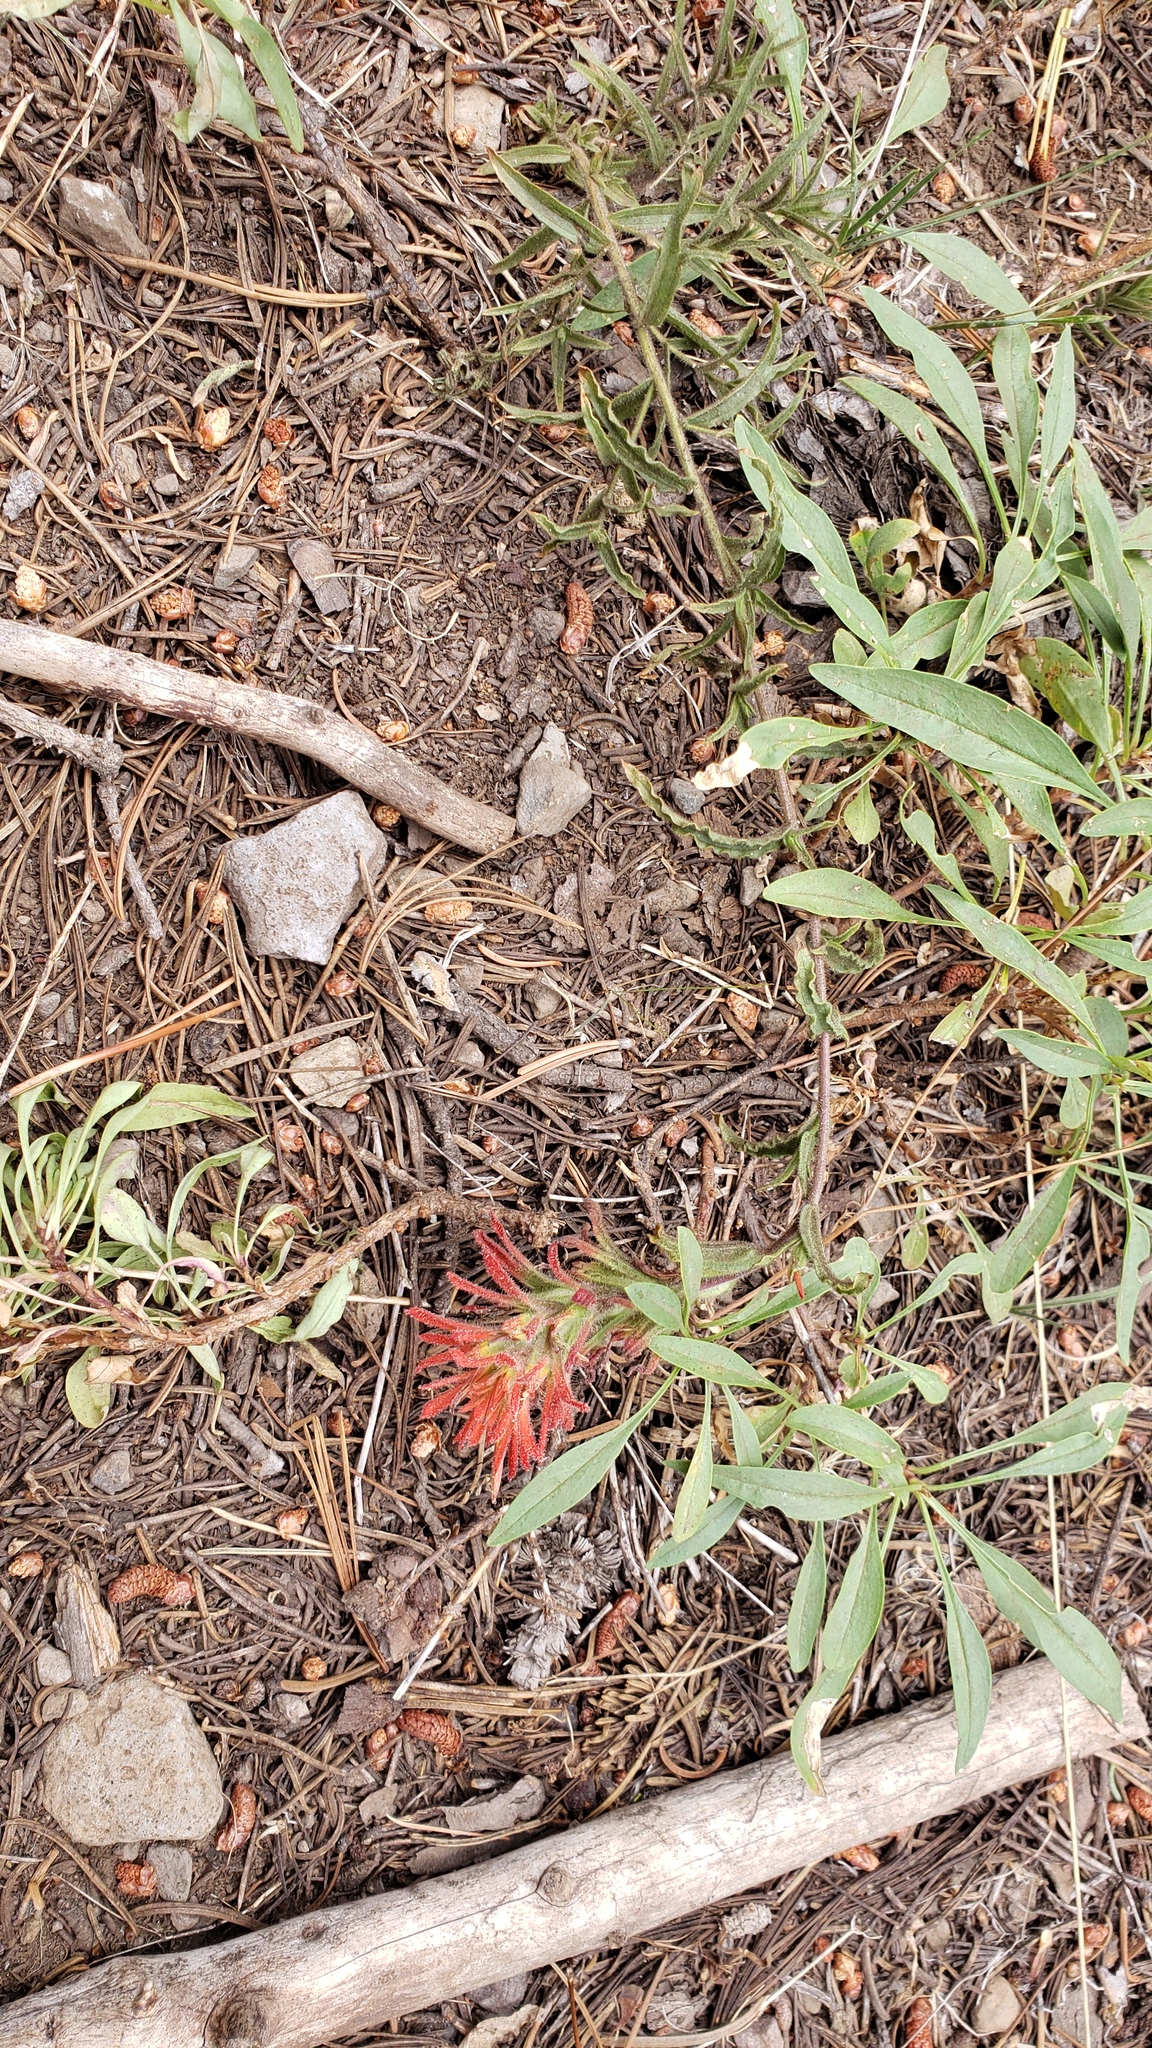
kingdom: Plantae
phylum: Tracheophyta
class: Magnoliopsida
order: Lamiales
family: Orobanchaceae
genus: Castilleja
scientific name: Castilleja applegatei
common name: Wavy-leaf paintbrush
